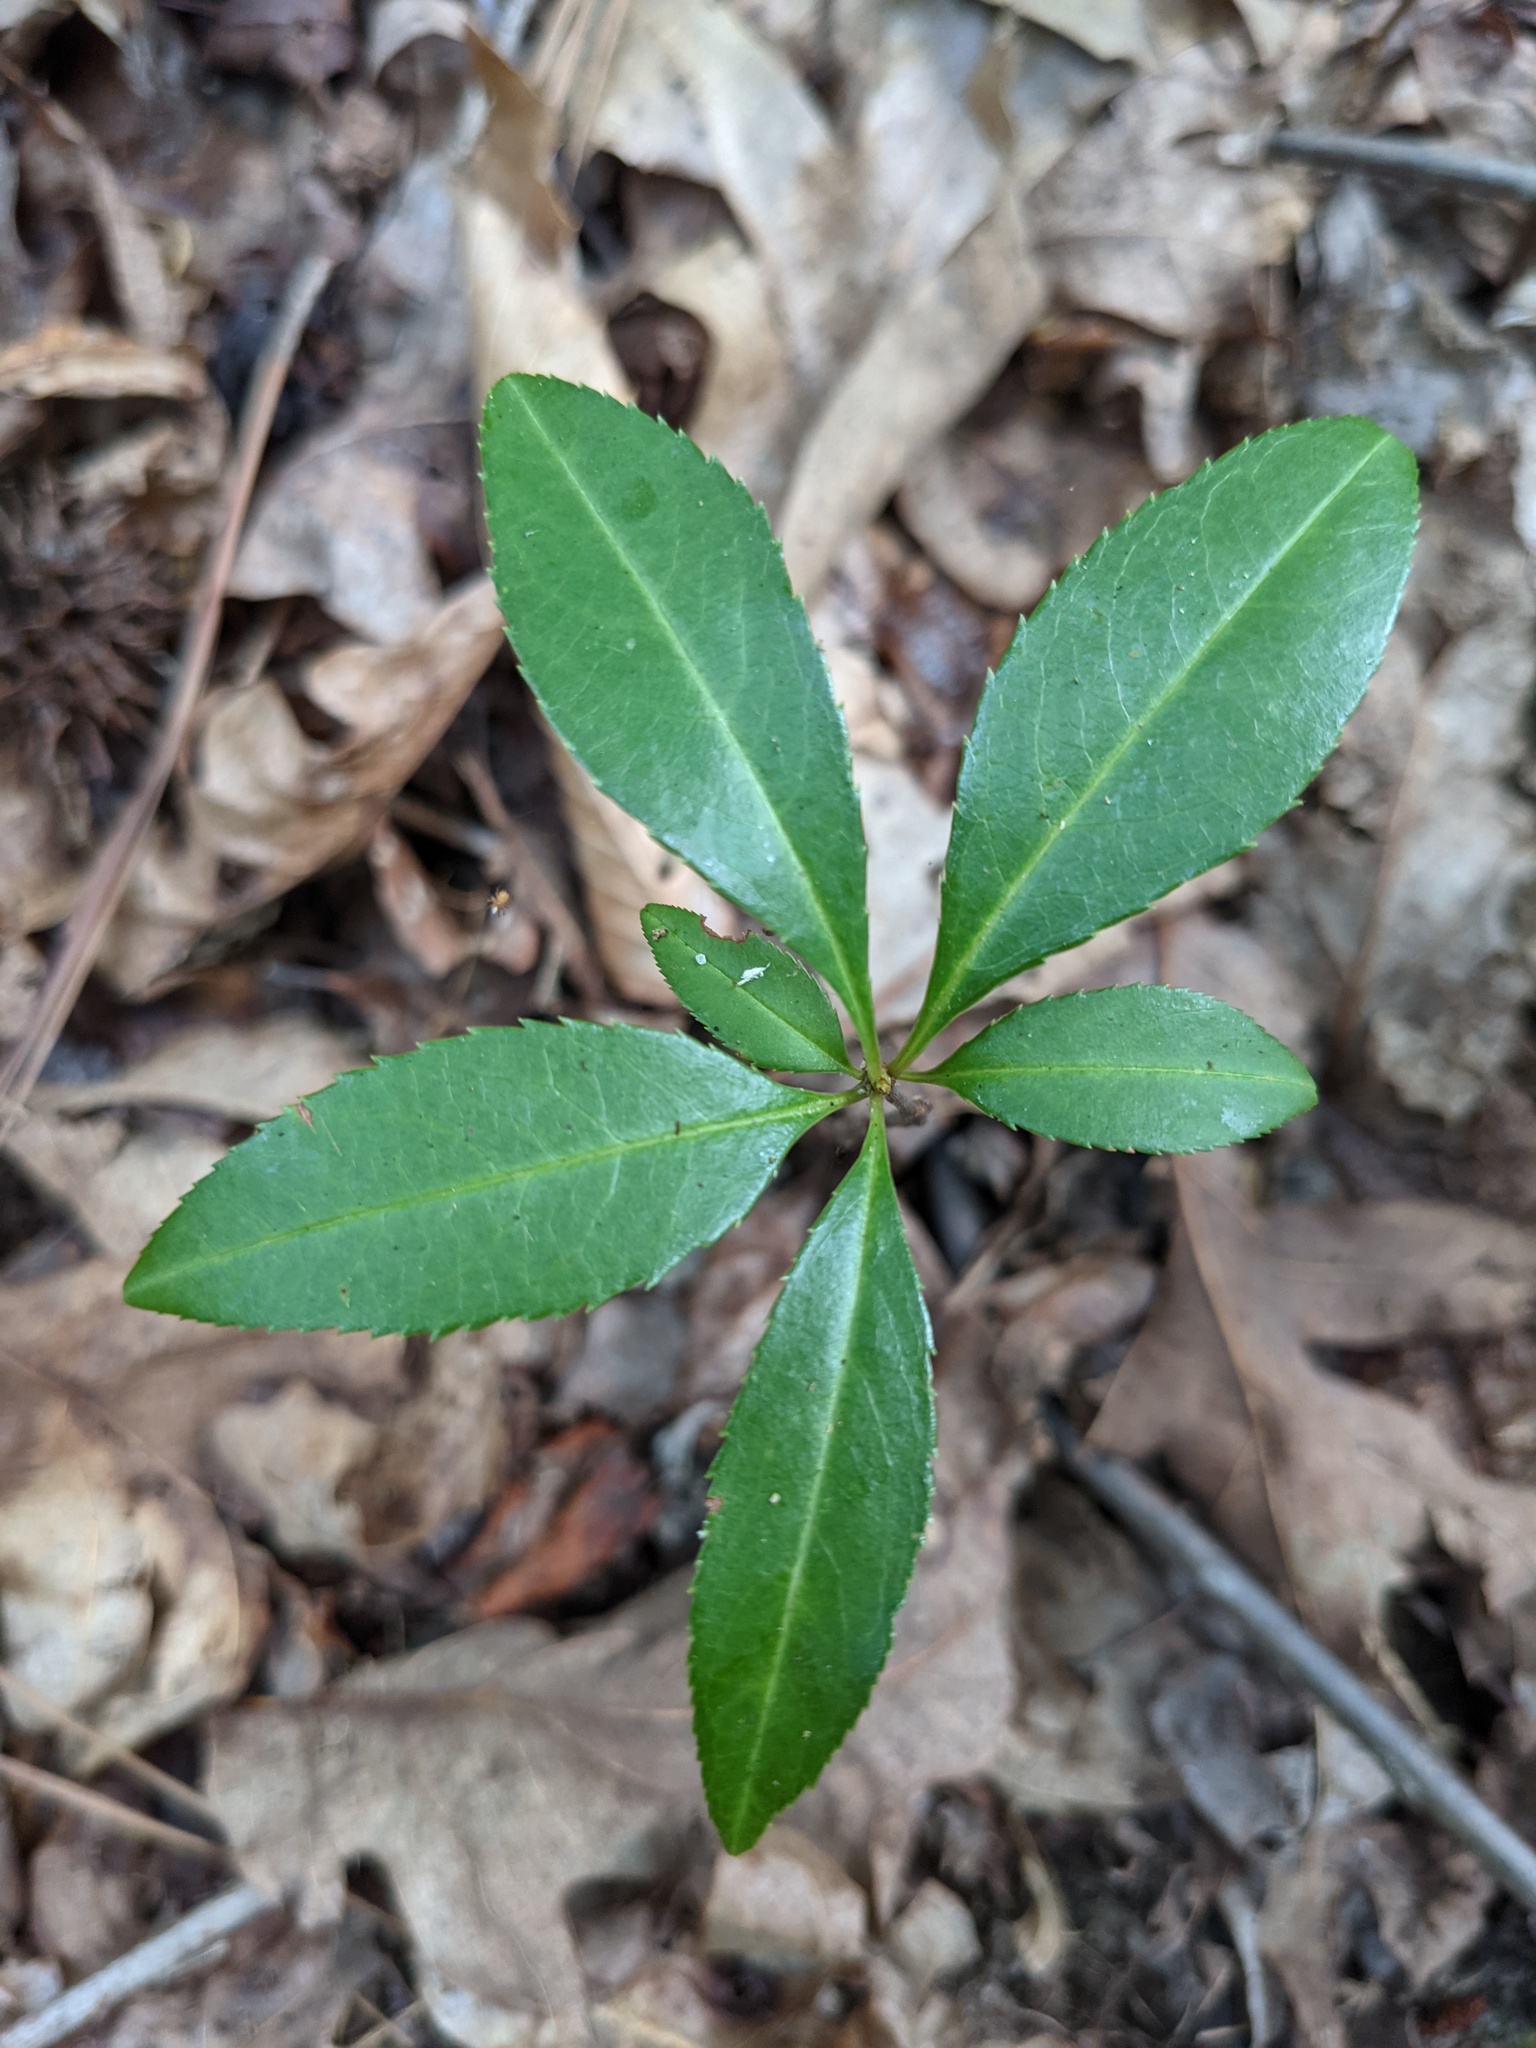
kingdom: Plantae
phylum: Tracheophyta
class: Magnoliopsida
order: Celastrales
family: Celastraceae
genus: Euonymus
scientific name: Euonymus americanus
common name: Bursting-heart
